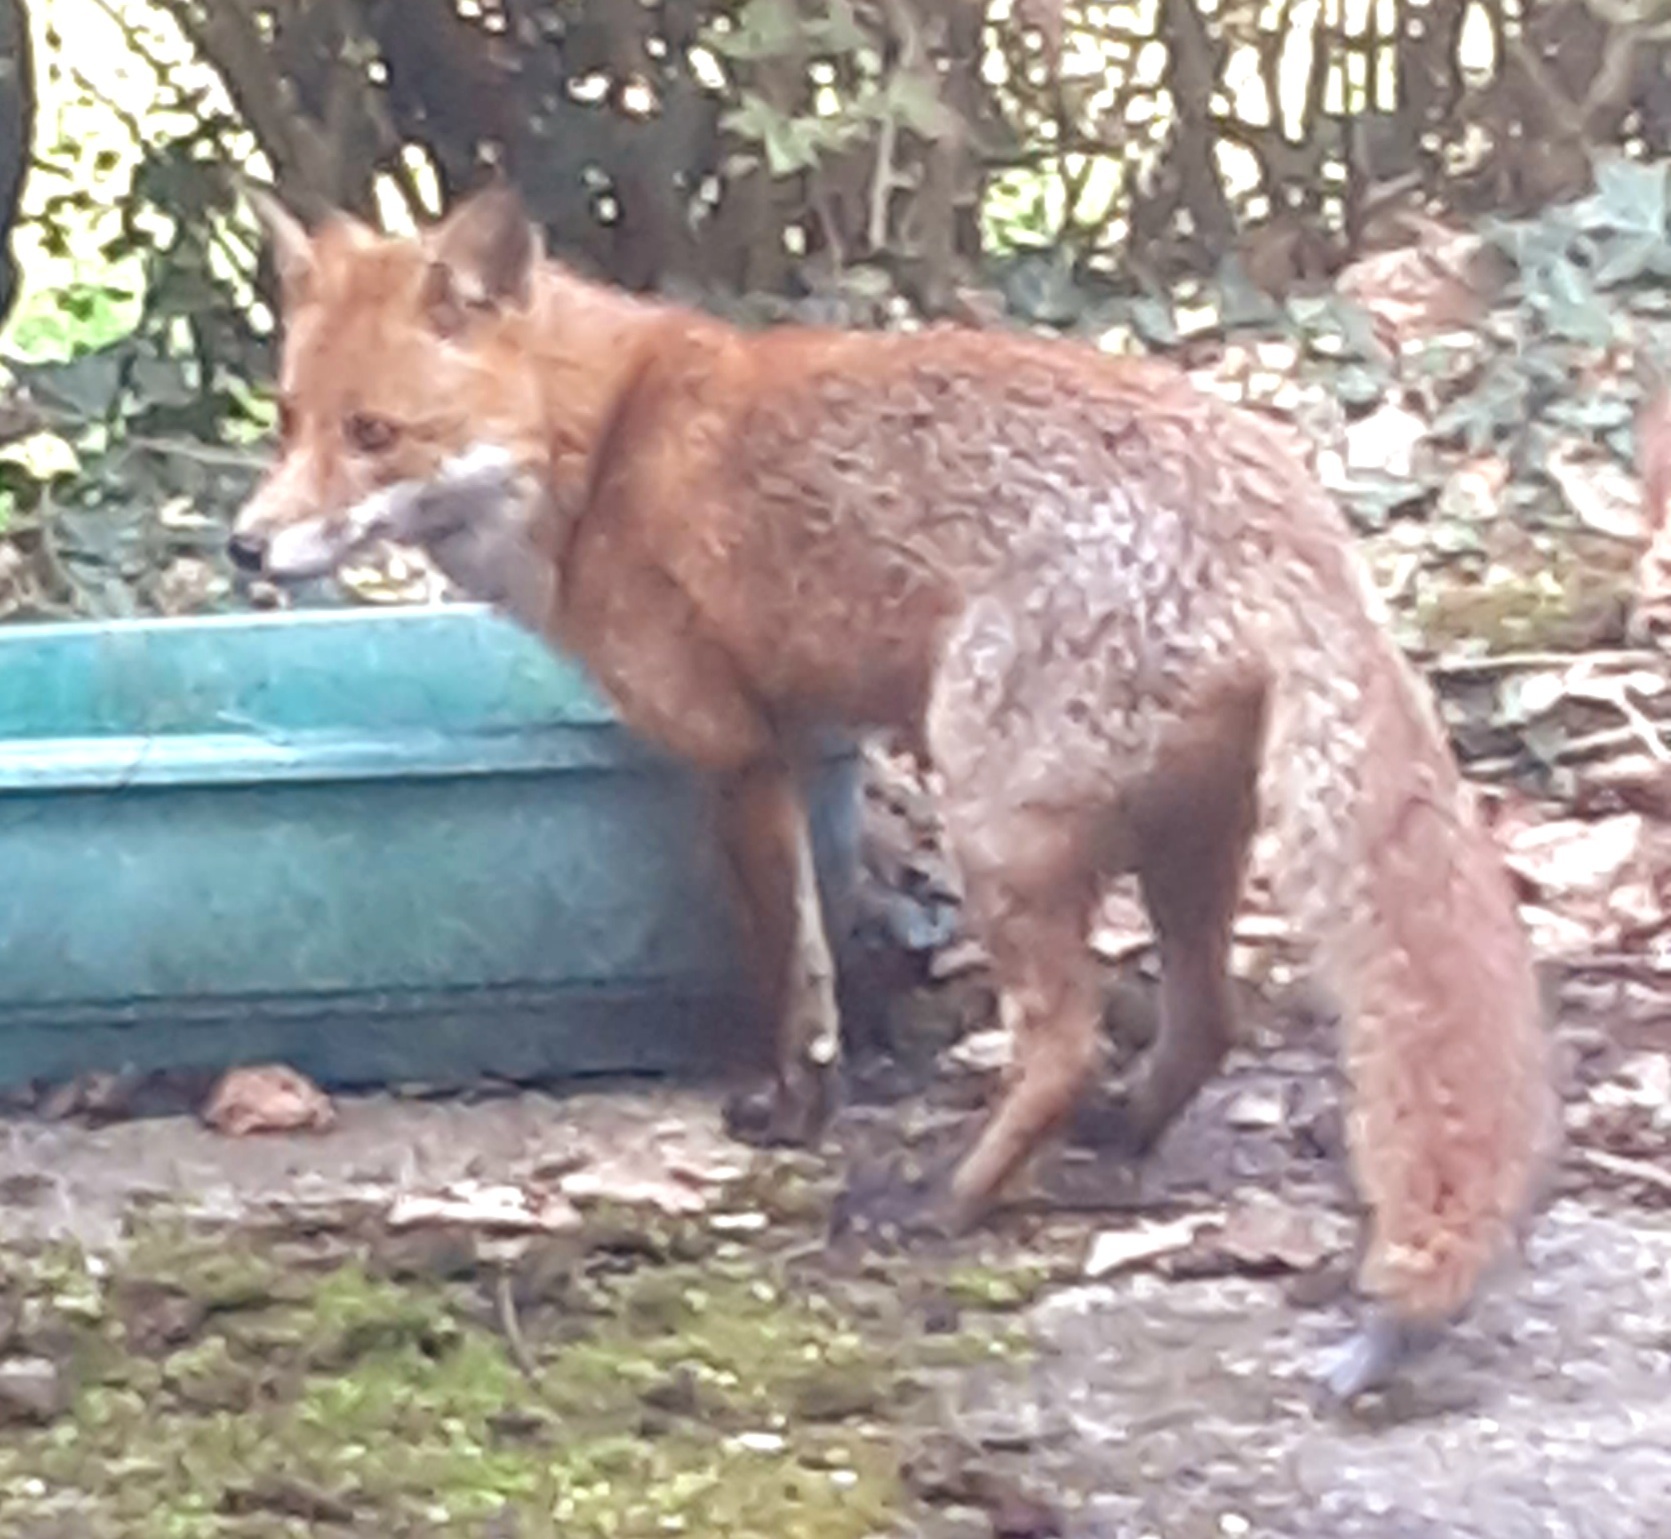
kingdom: Animalia
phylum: Chordata
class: Mammalia
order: Carnivora
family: Canidae
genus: Vulpes
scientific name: Vulpes vulpes
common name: Red fox
